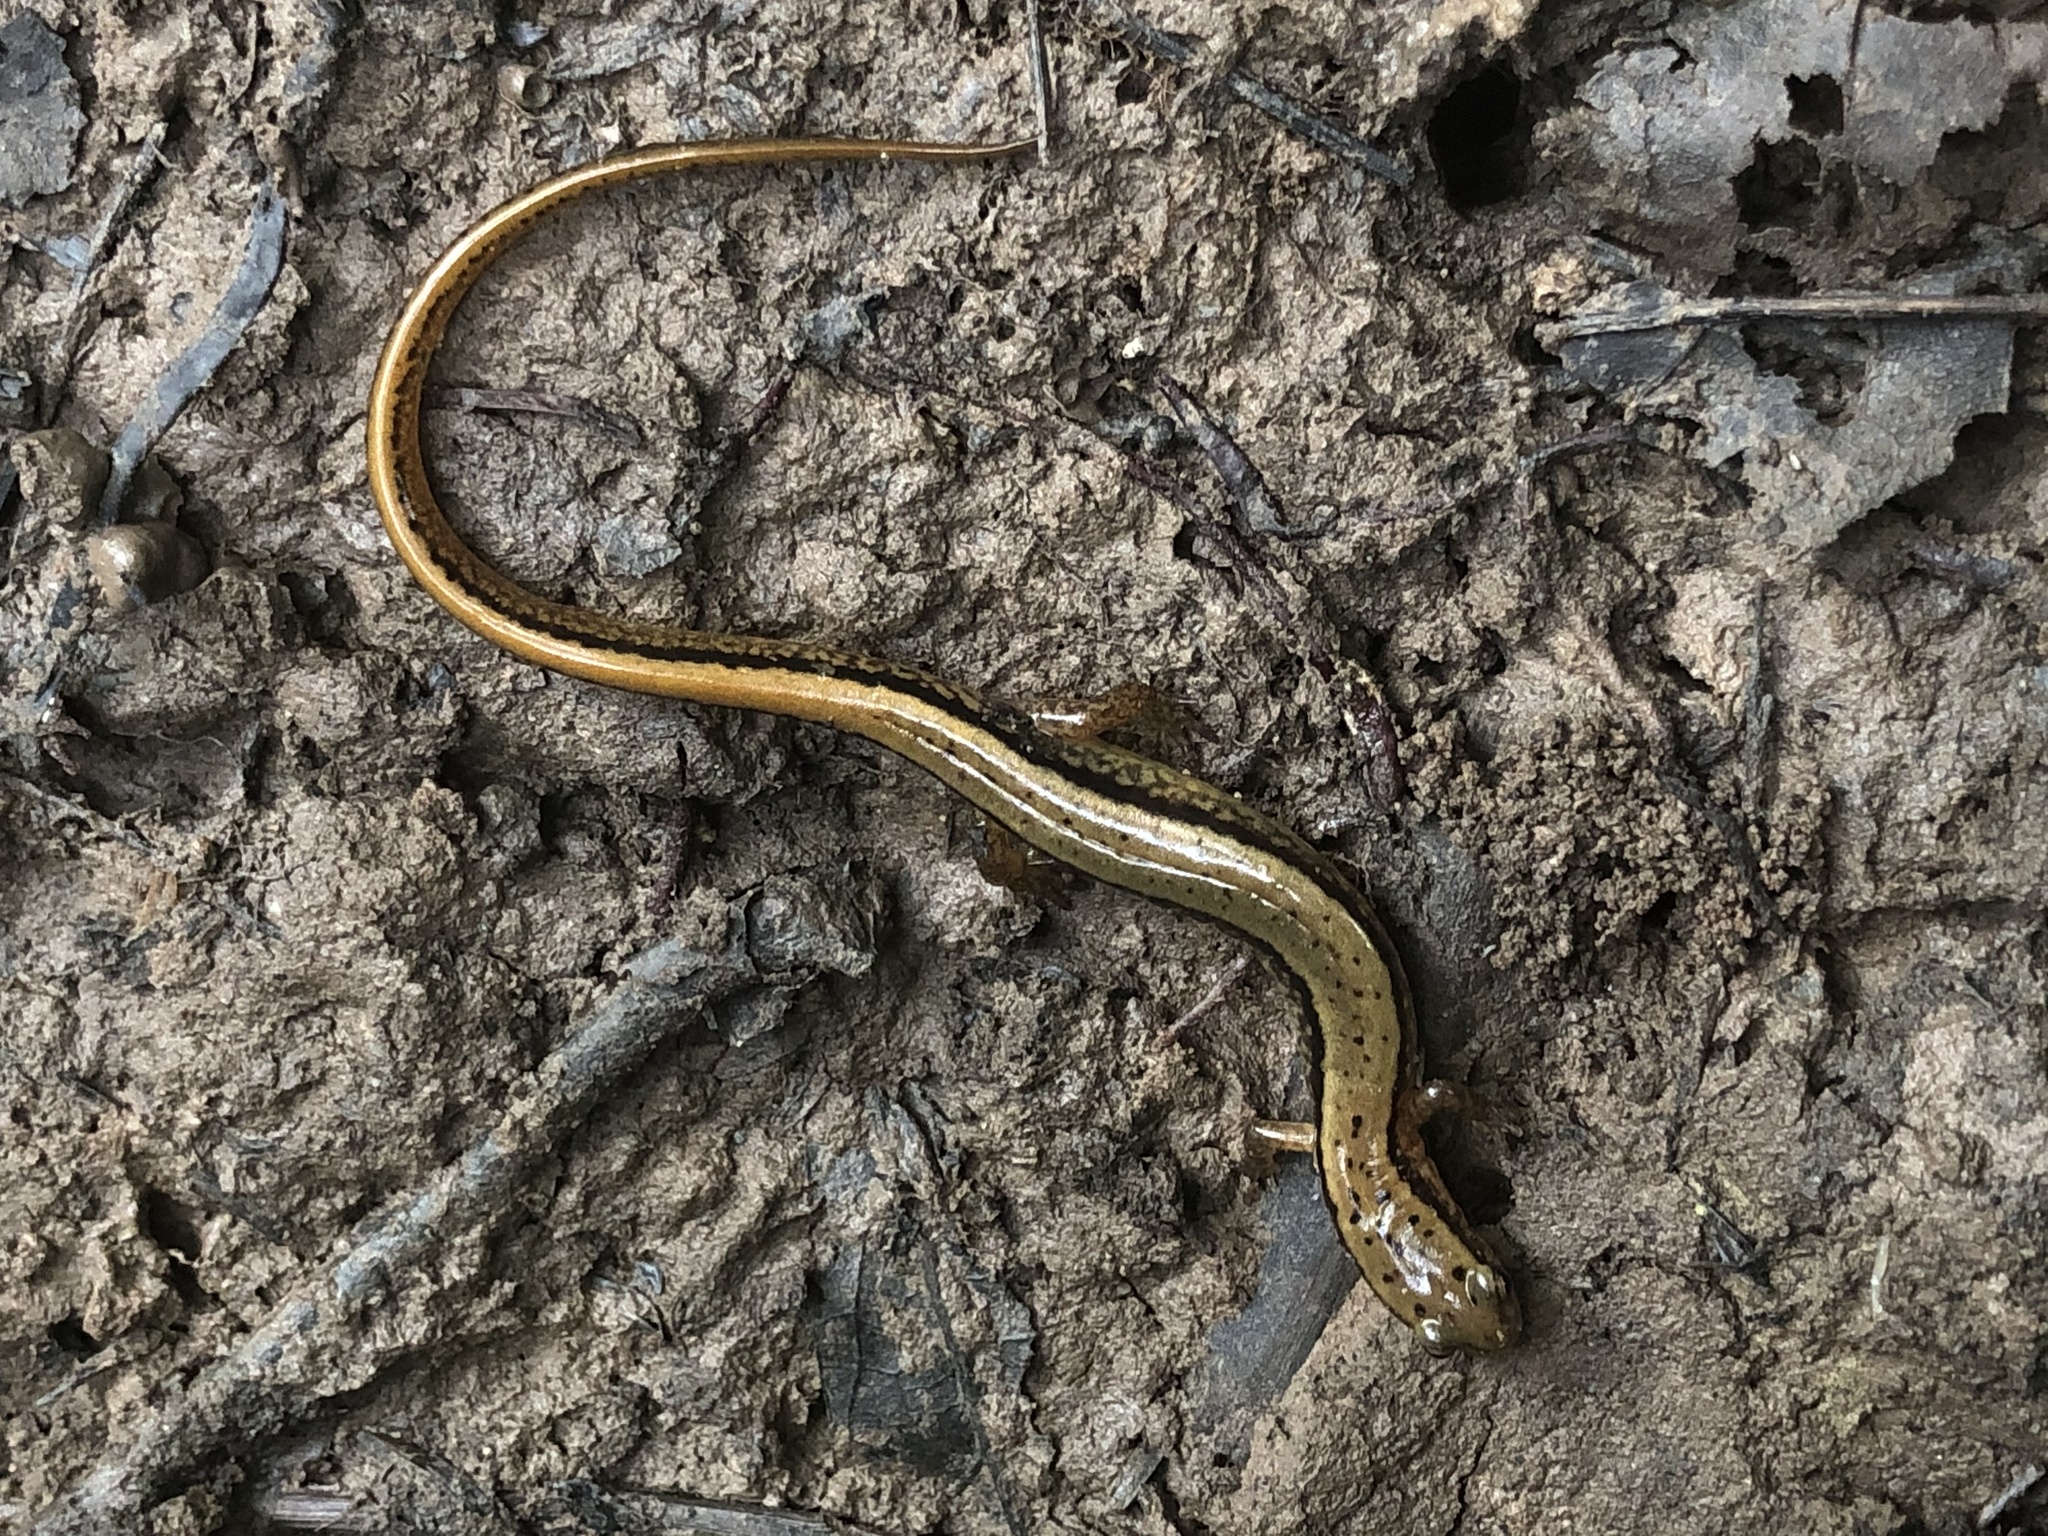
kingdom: Animalia
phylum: Chordata
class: Amphibia
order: Caudata
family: Plethodontidae
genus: Eurycea
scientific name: Eurycea bislineata
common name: Northern two-lined salamander
